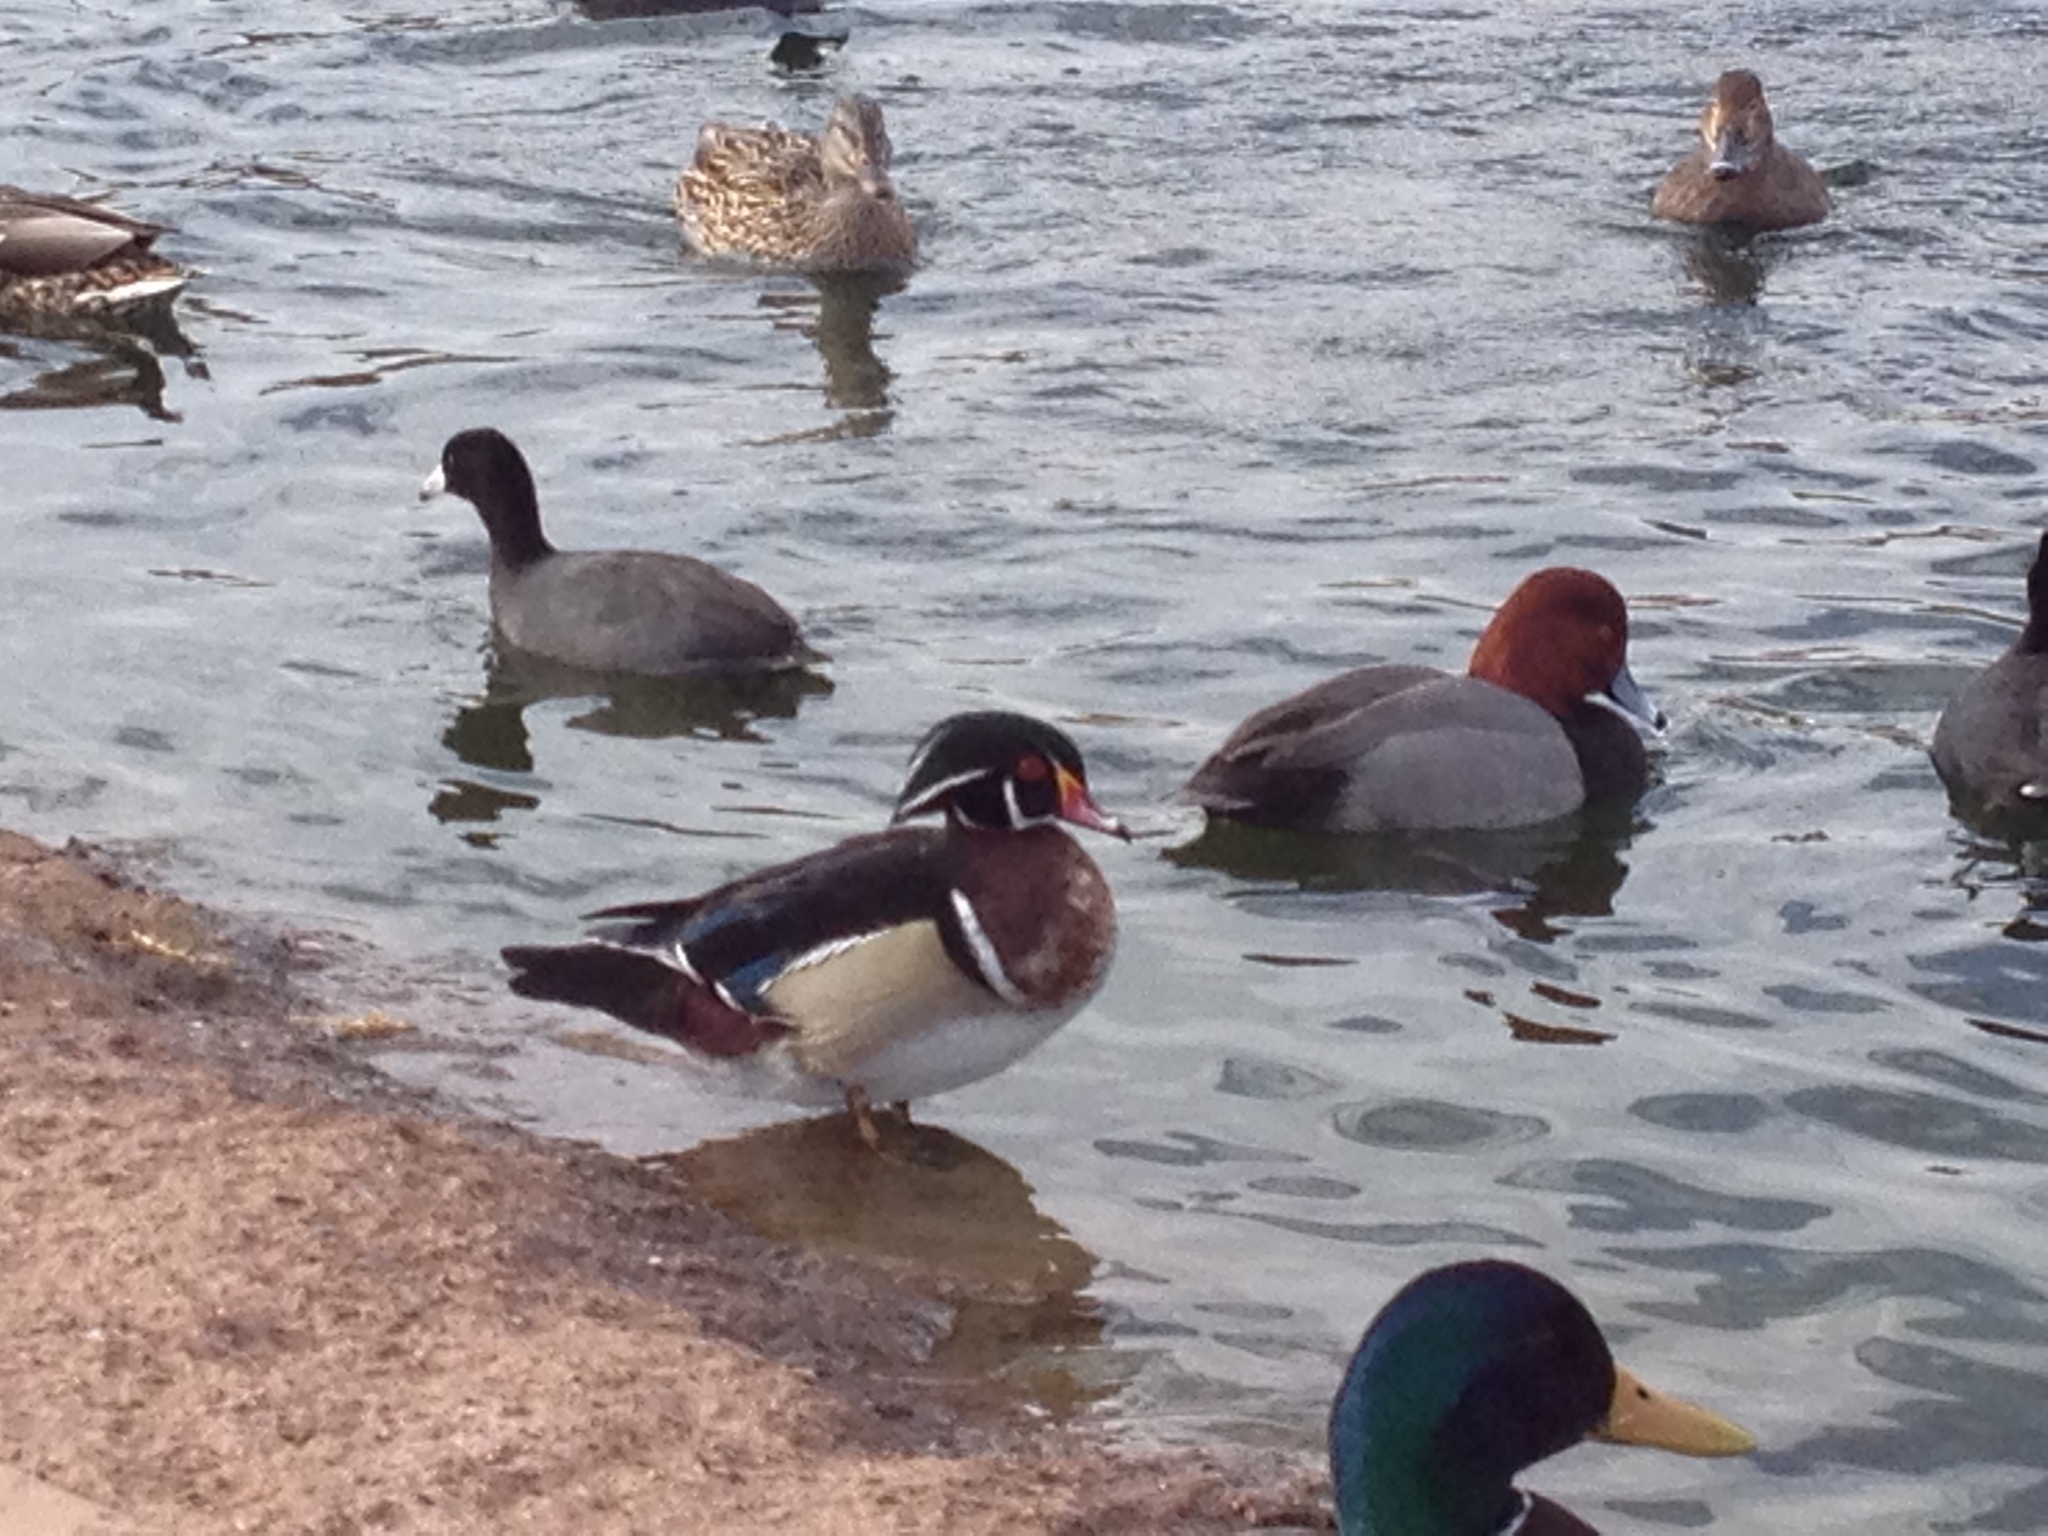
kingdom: Animalia
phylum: Chordata
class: Aves
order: Anseriformes
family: Anatidae
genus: Aix
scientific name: Aix sponsa
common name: Wood duck
